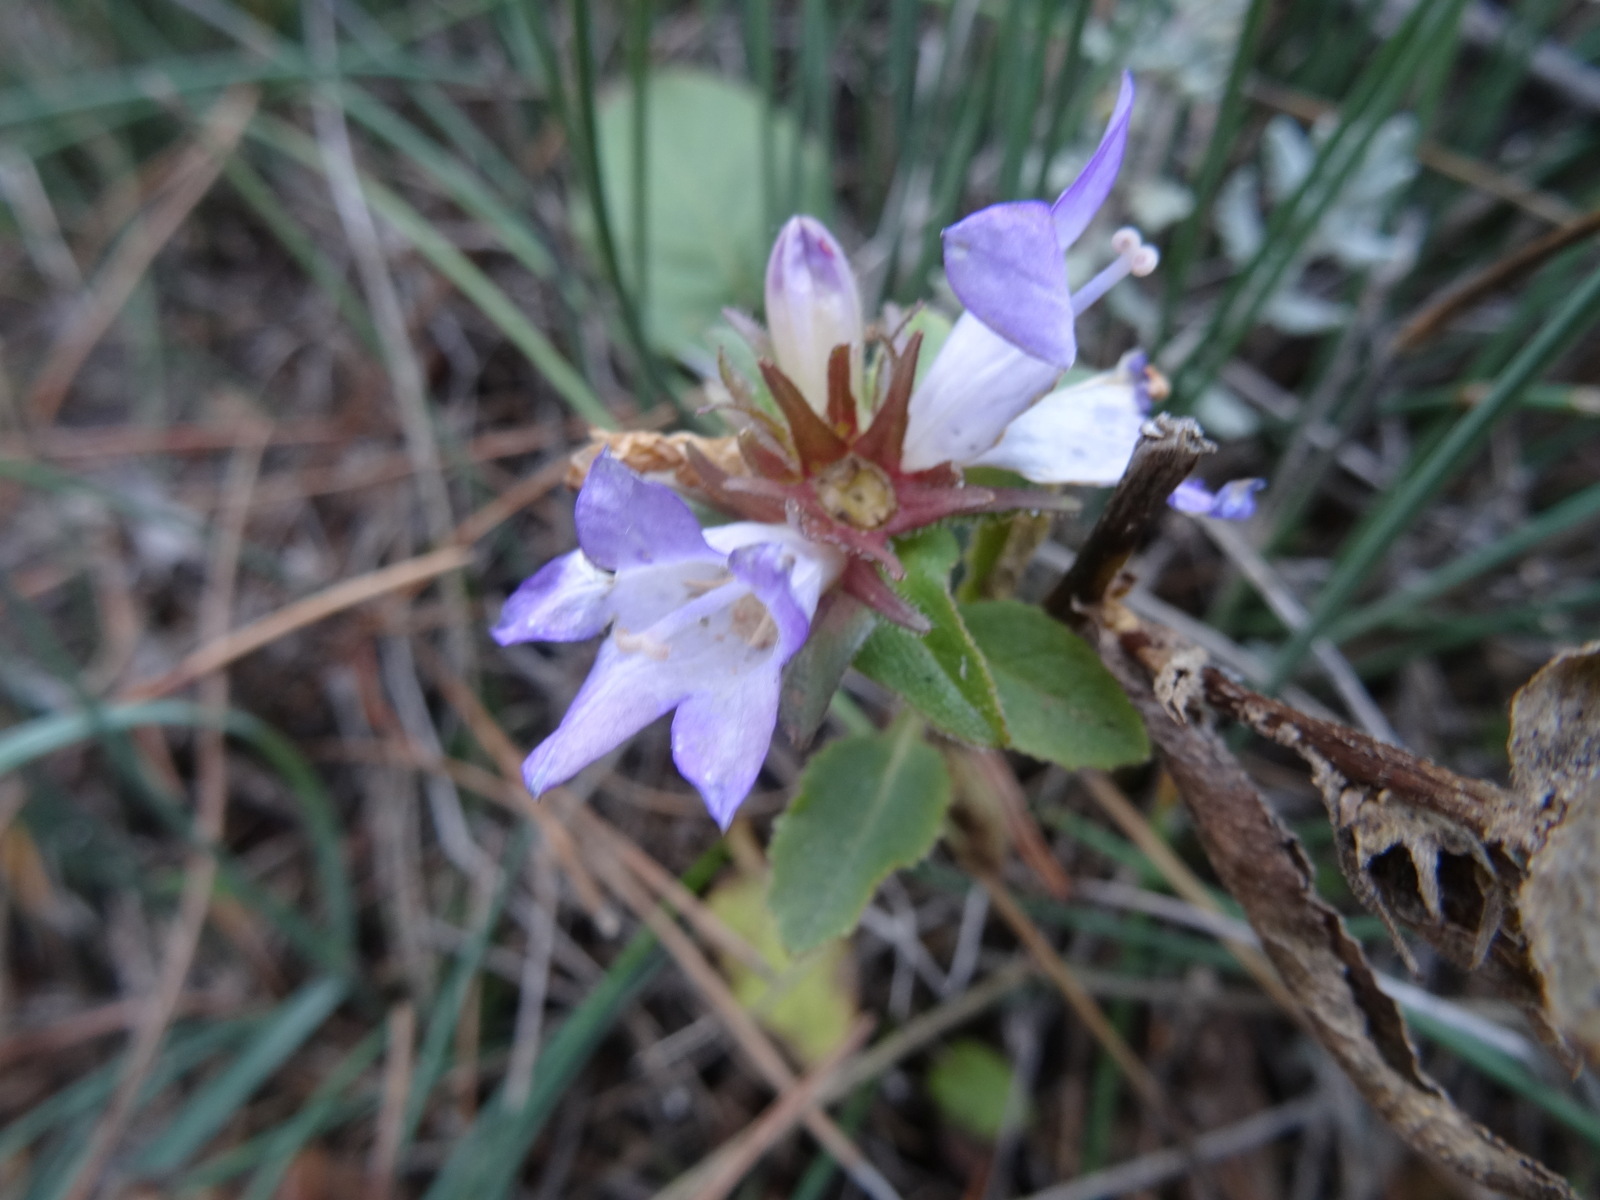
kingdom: Plantae
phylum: Tracheophyta
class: Magnoliopsida
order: Asterales
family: Campanulaceae
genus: Campanula
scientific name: Campanula glomerata
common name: Clustered bellflower
